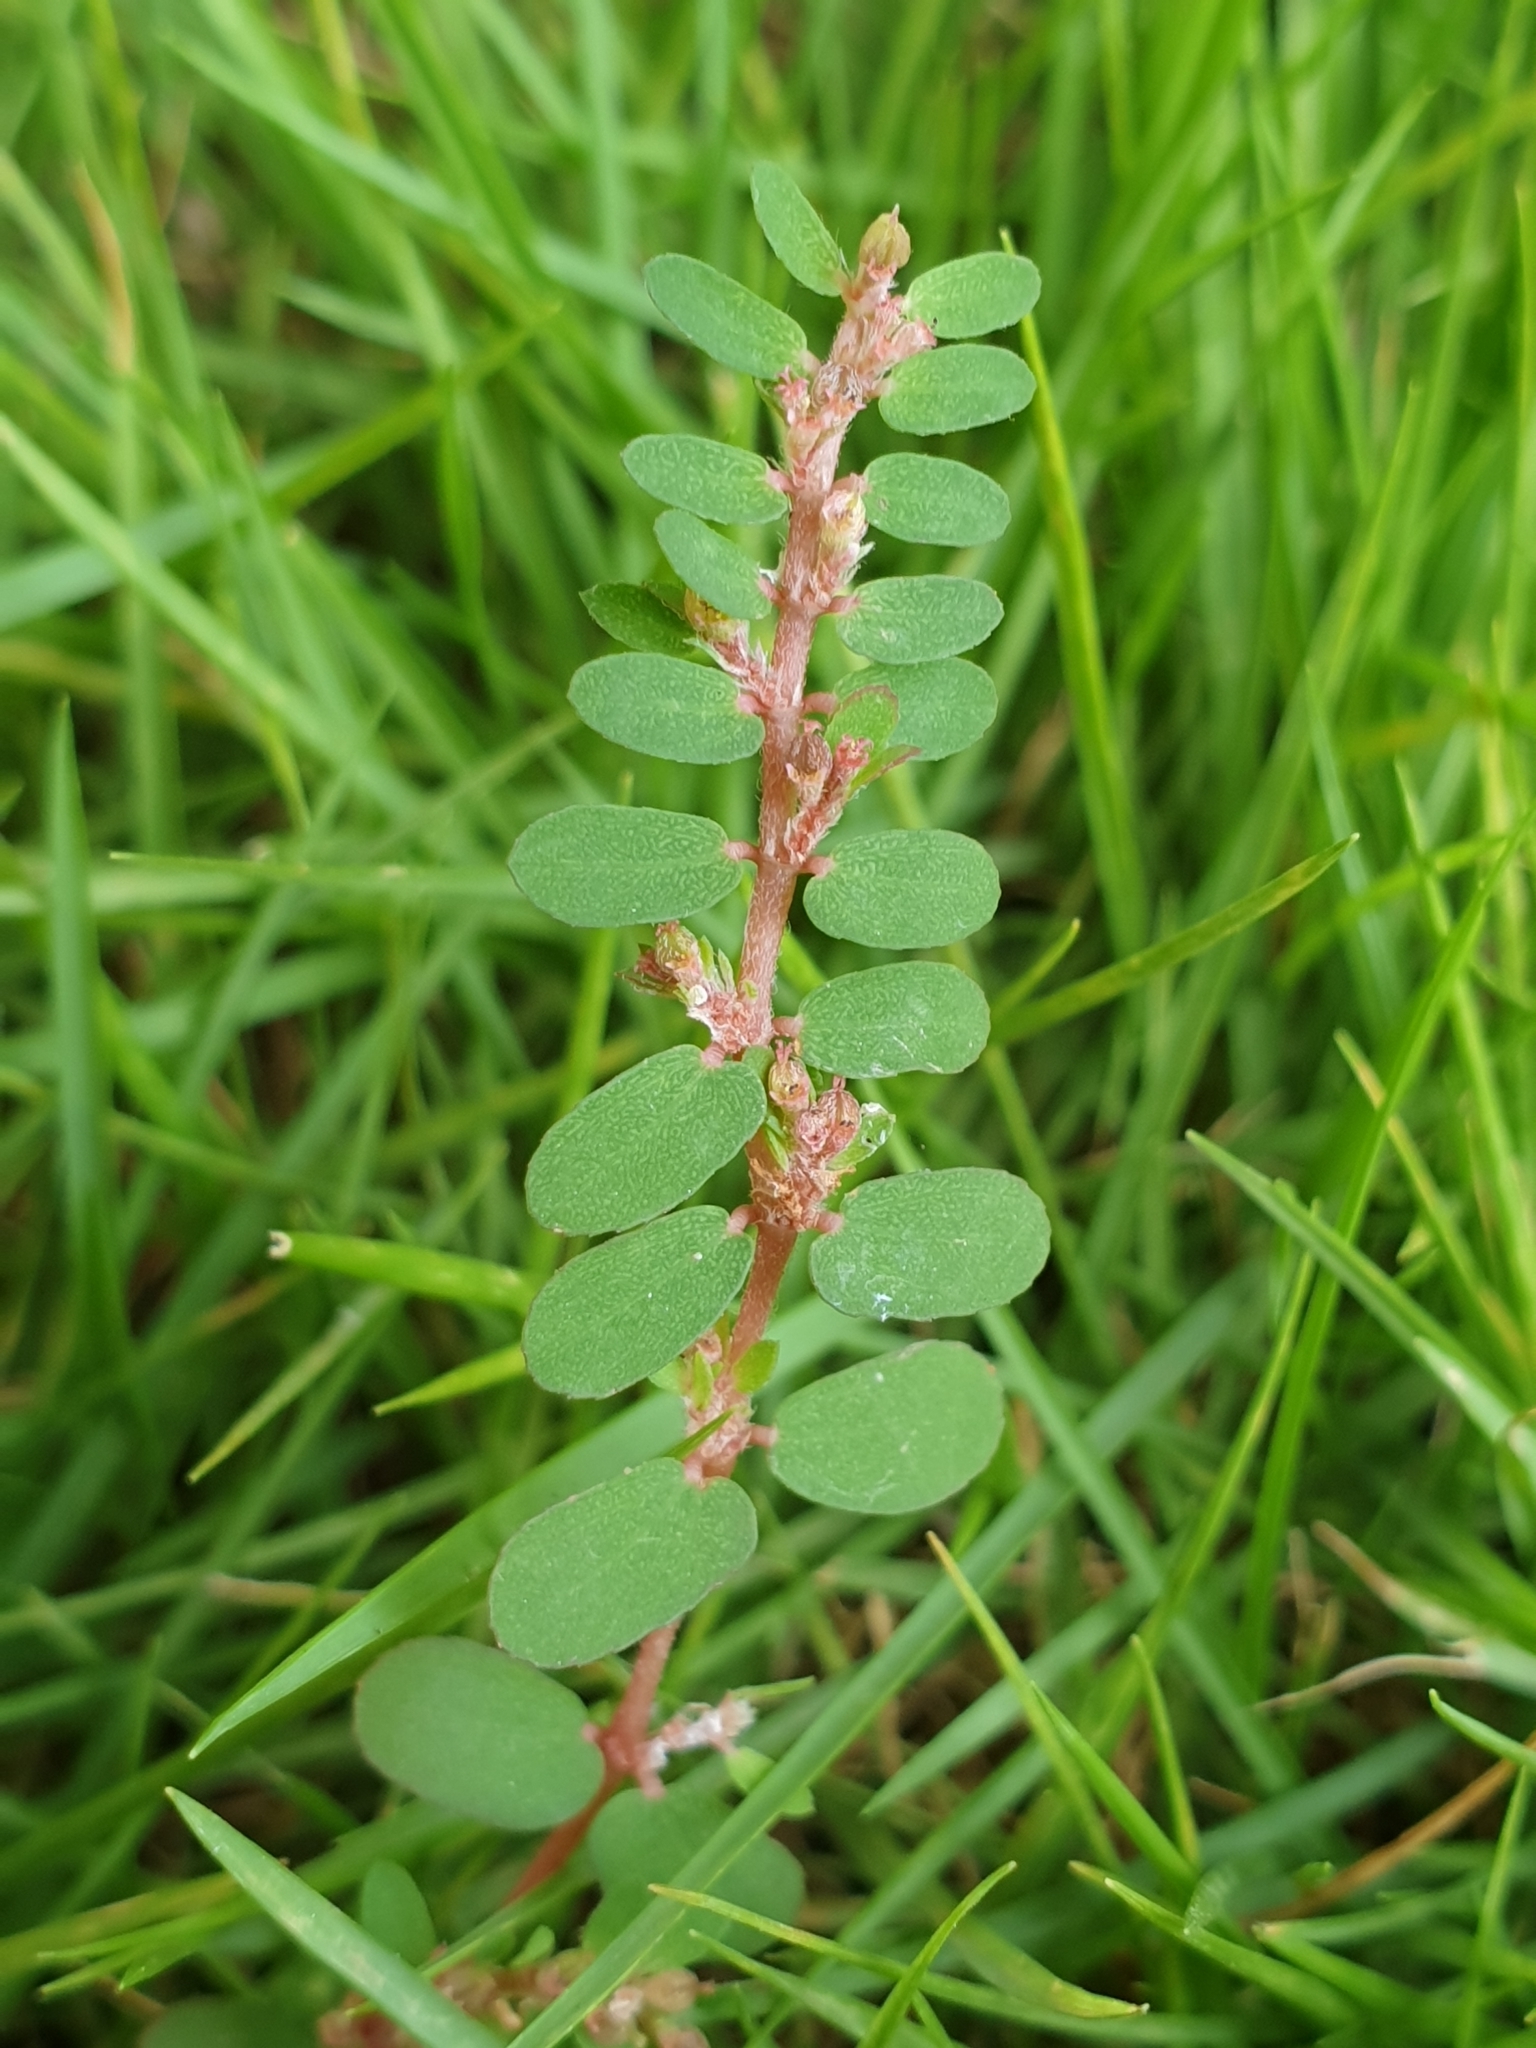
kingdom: Plantae
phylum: Tracheophyta
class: Magnoliopsida
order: Malpighiales
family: Euphorbiaceae
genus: Euphorbia
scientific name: Euphorbia thymifolia
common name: Gulf sandmat
